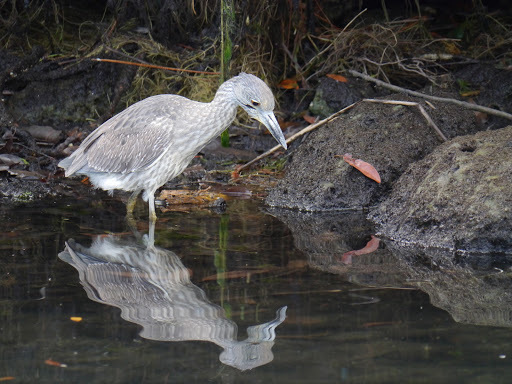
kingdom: Animalia
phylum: Chordata
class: Aves
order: Pelecaniformes
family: Ardeidae
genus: Nyctanassa
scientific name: Nyctanassa violacea
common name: Yellow-crowned night heron
